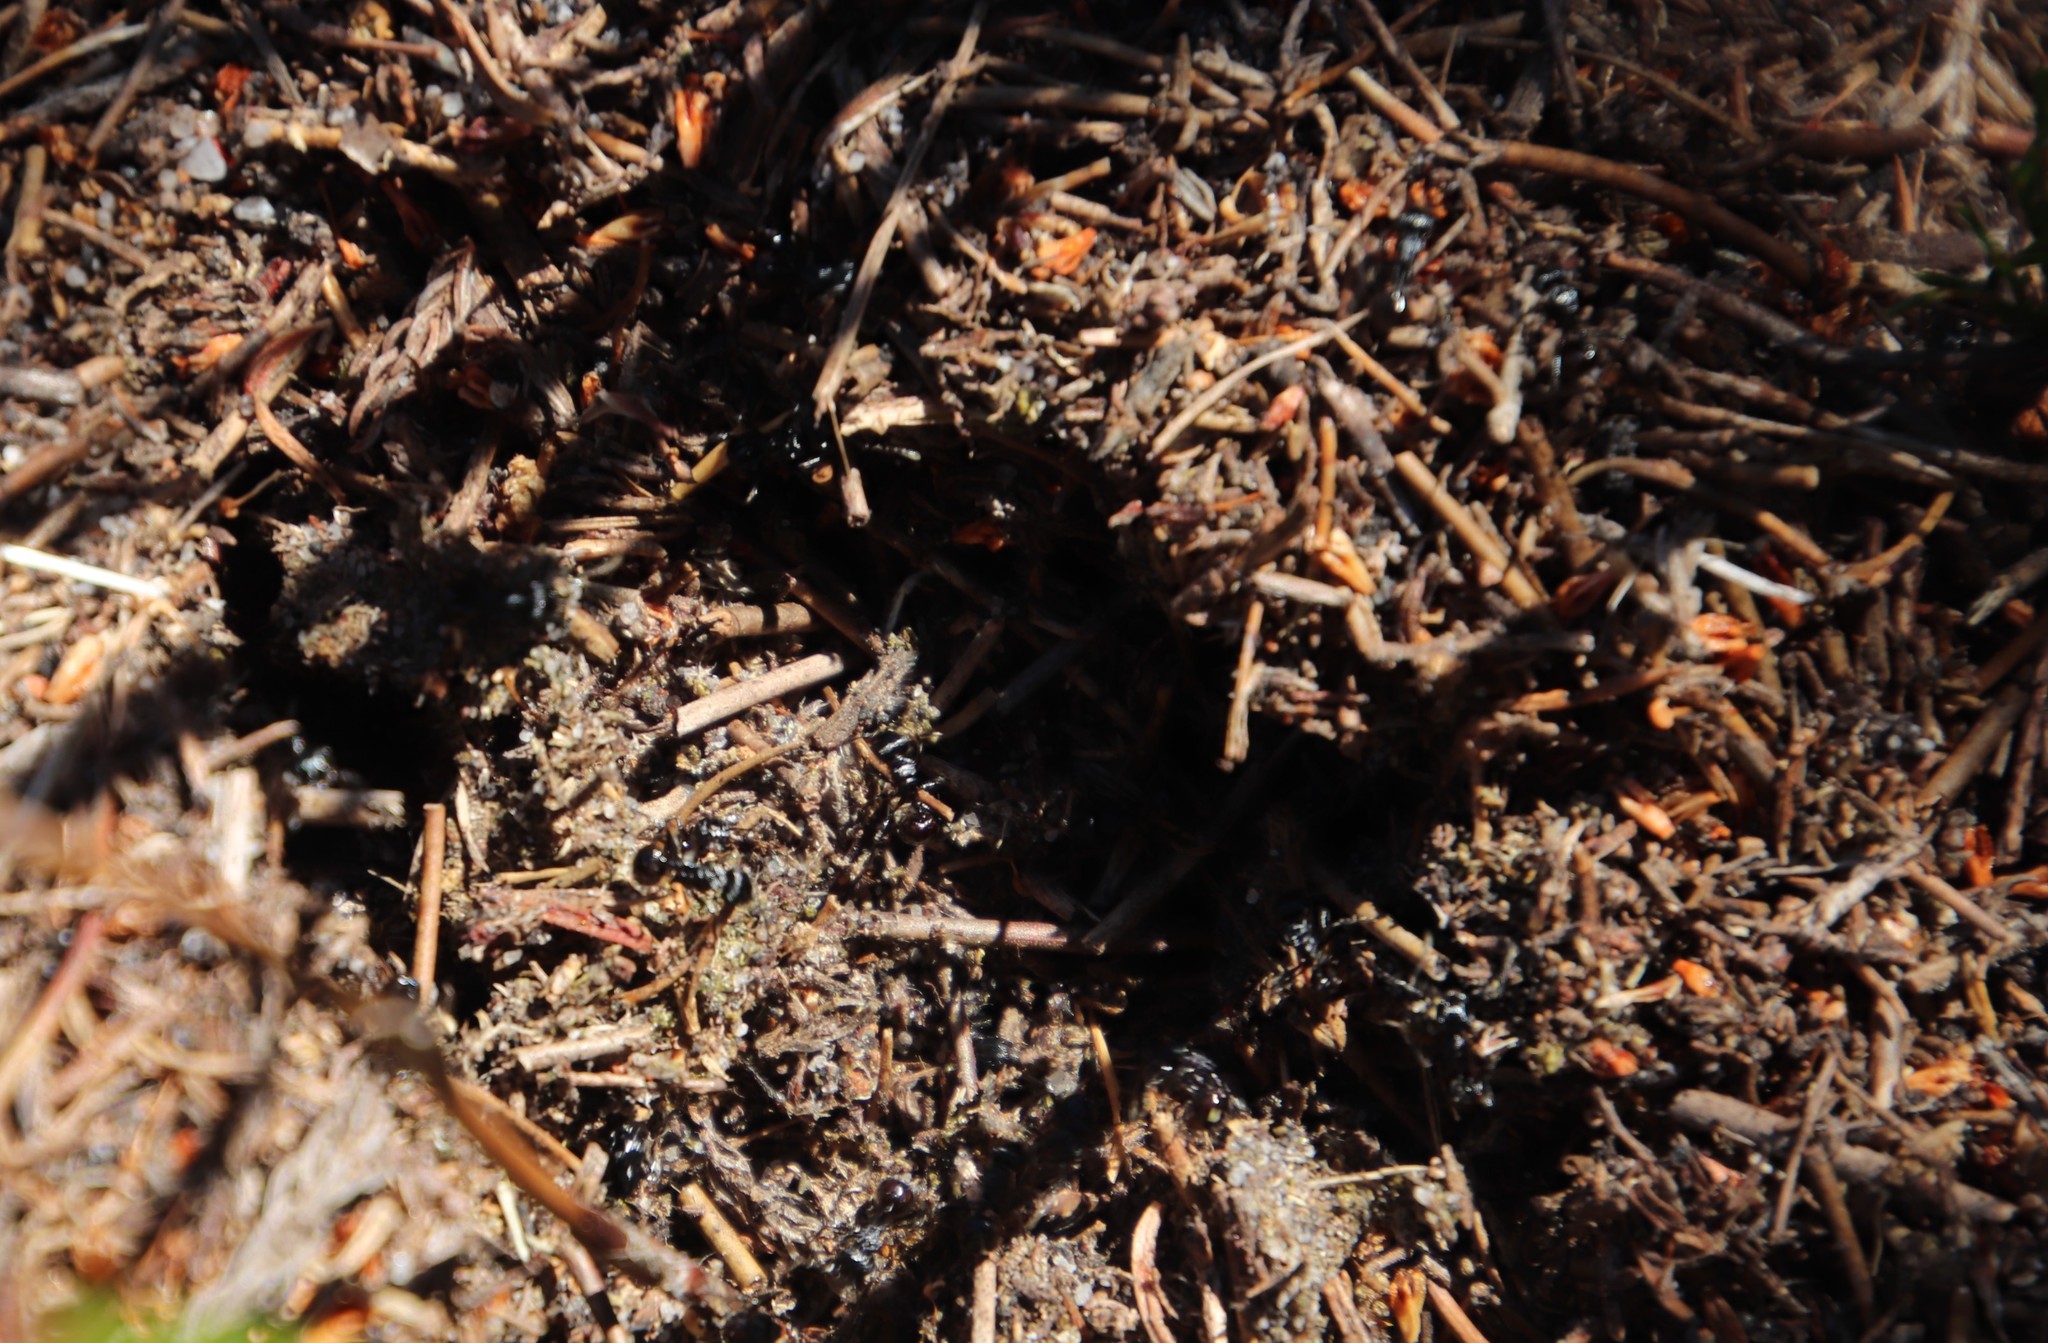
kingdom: Animalia
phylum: Arthropoda
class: Insecta
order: Hymenoptera
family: Formicidae
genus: Myrmicaria
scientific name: Myrmicaria nigra
